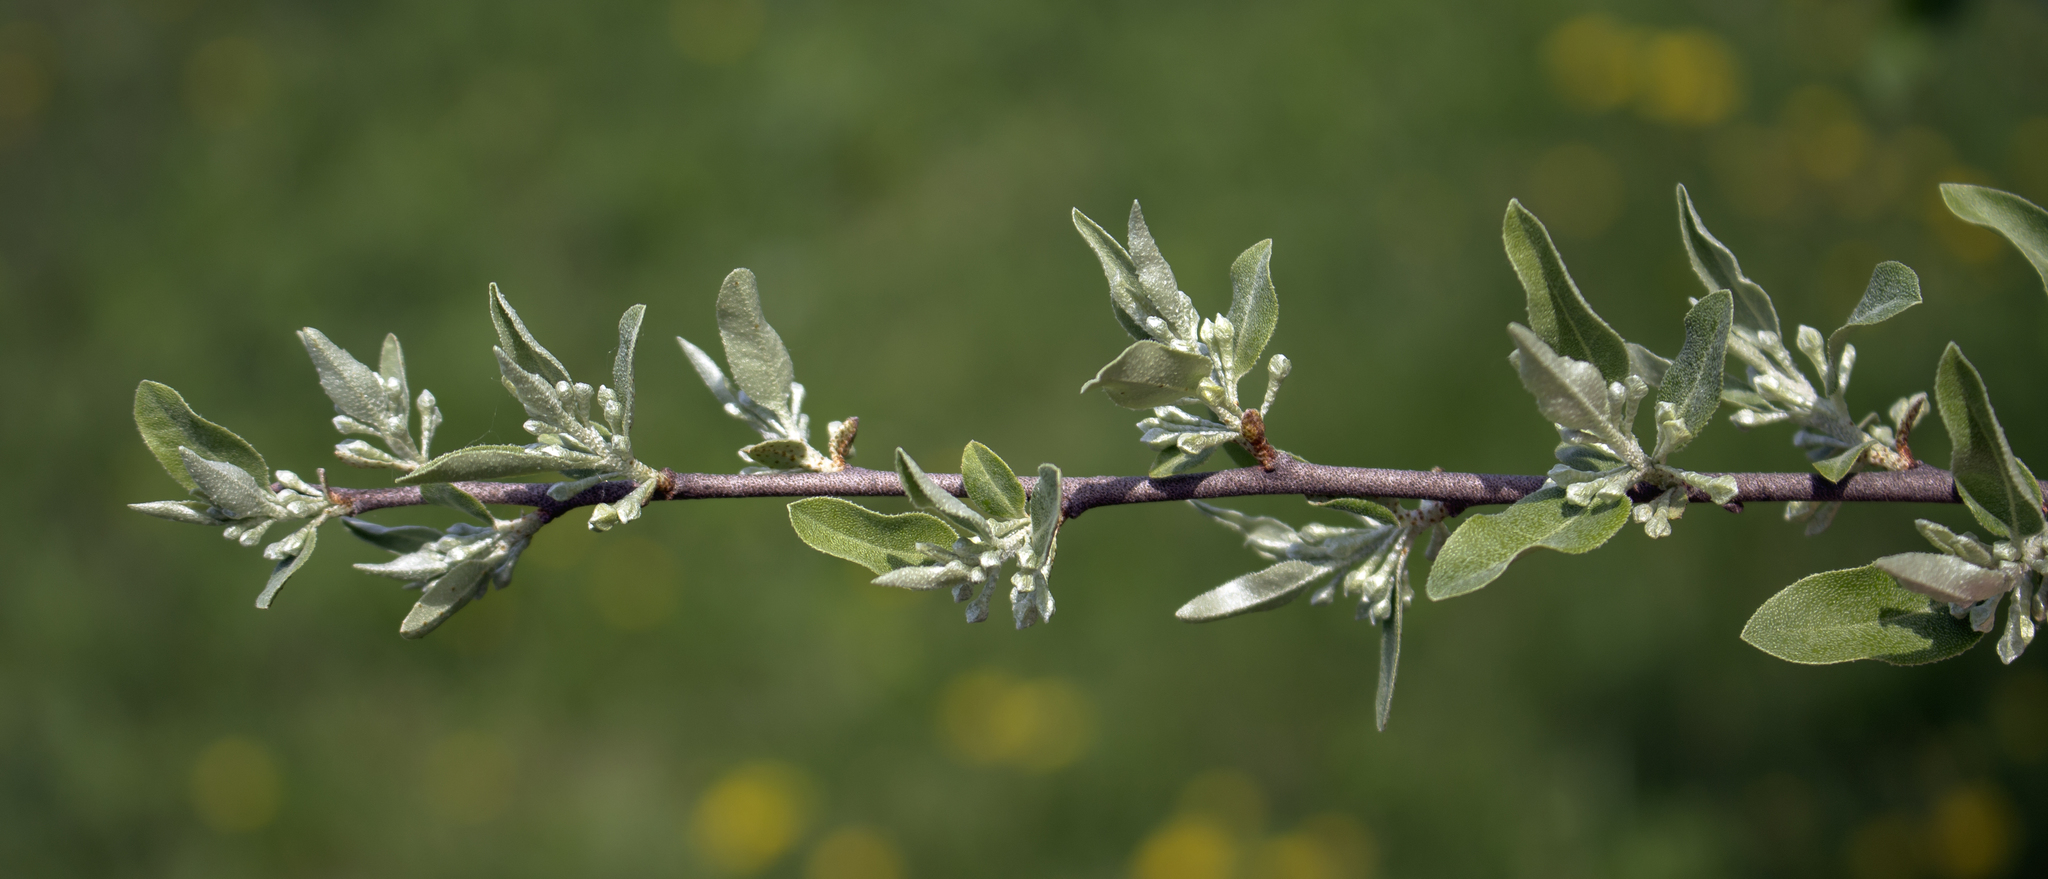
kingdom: Plantae
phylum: Tracheophyta
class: Magnoliopsida
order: Rosales
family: Elaeagnaceae
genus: Elaeagnus
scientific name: Elaeagnus umbellata
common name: Autumn olive
